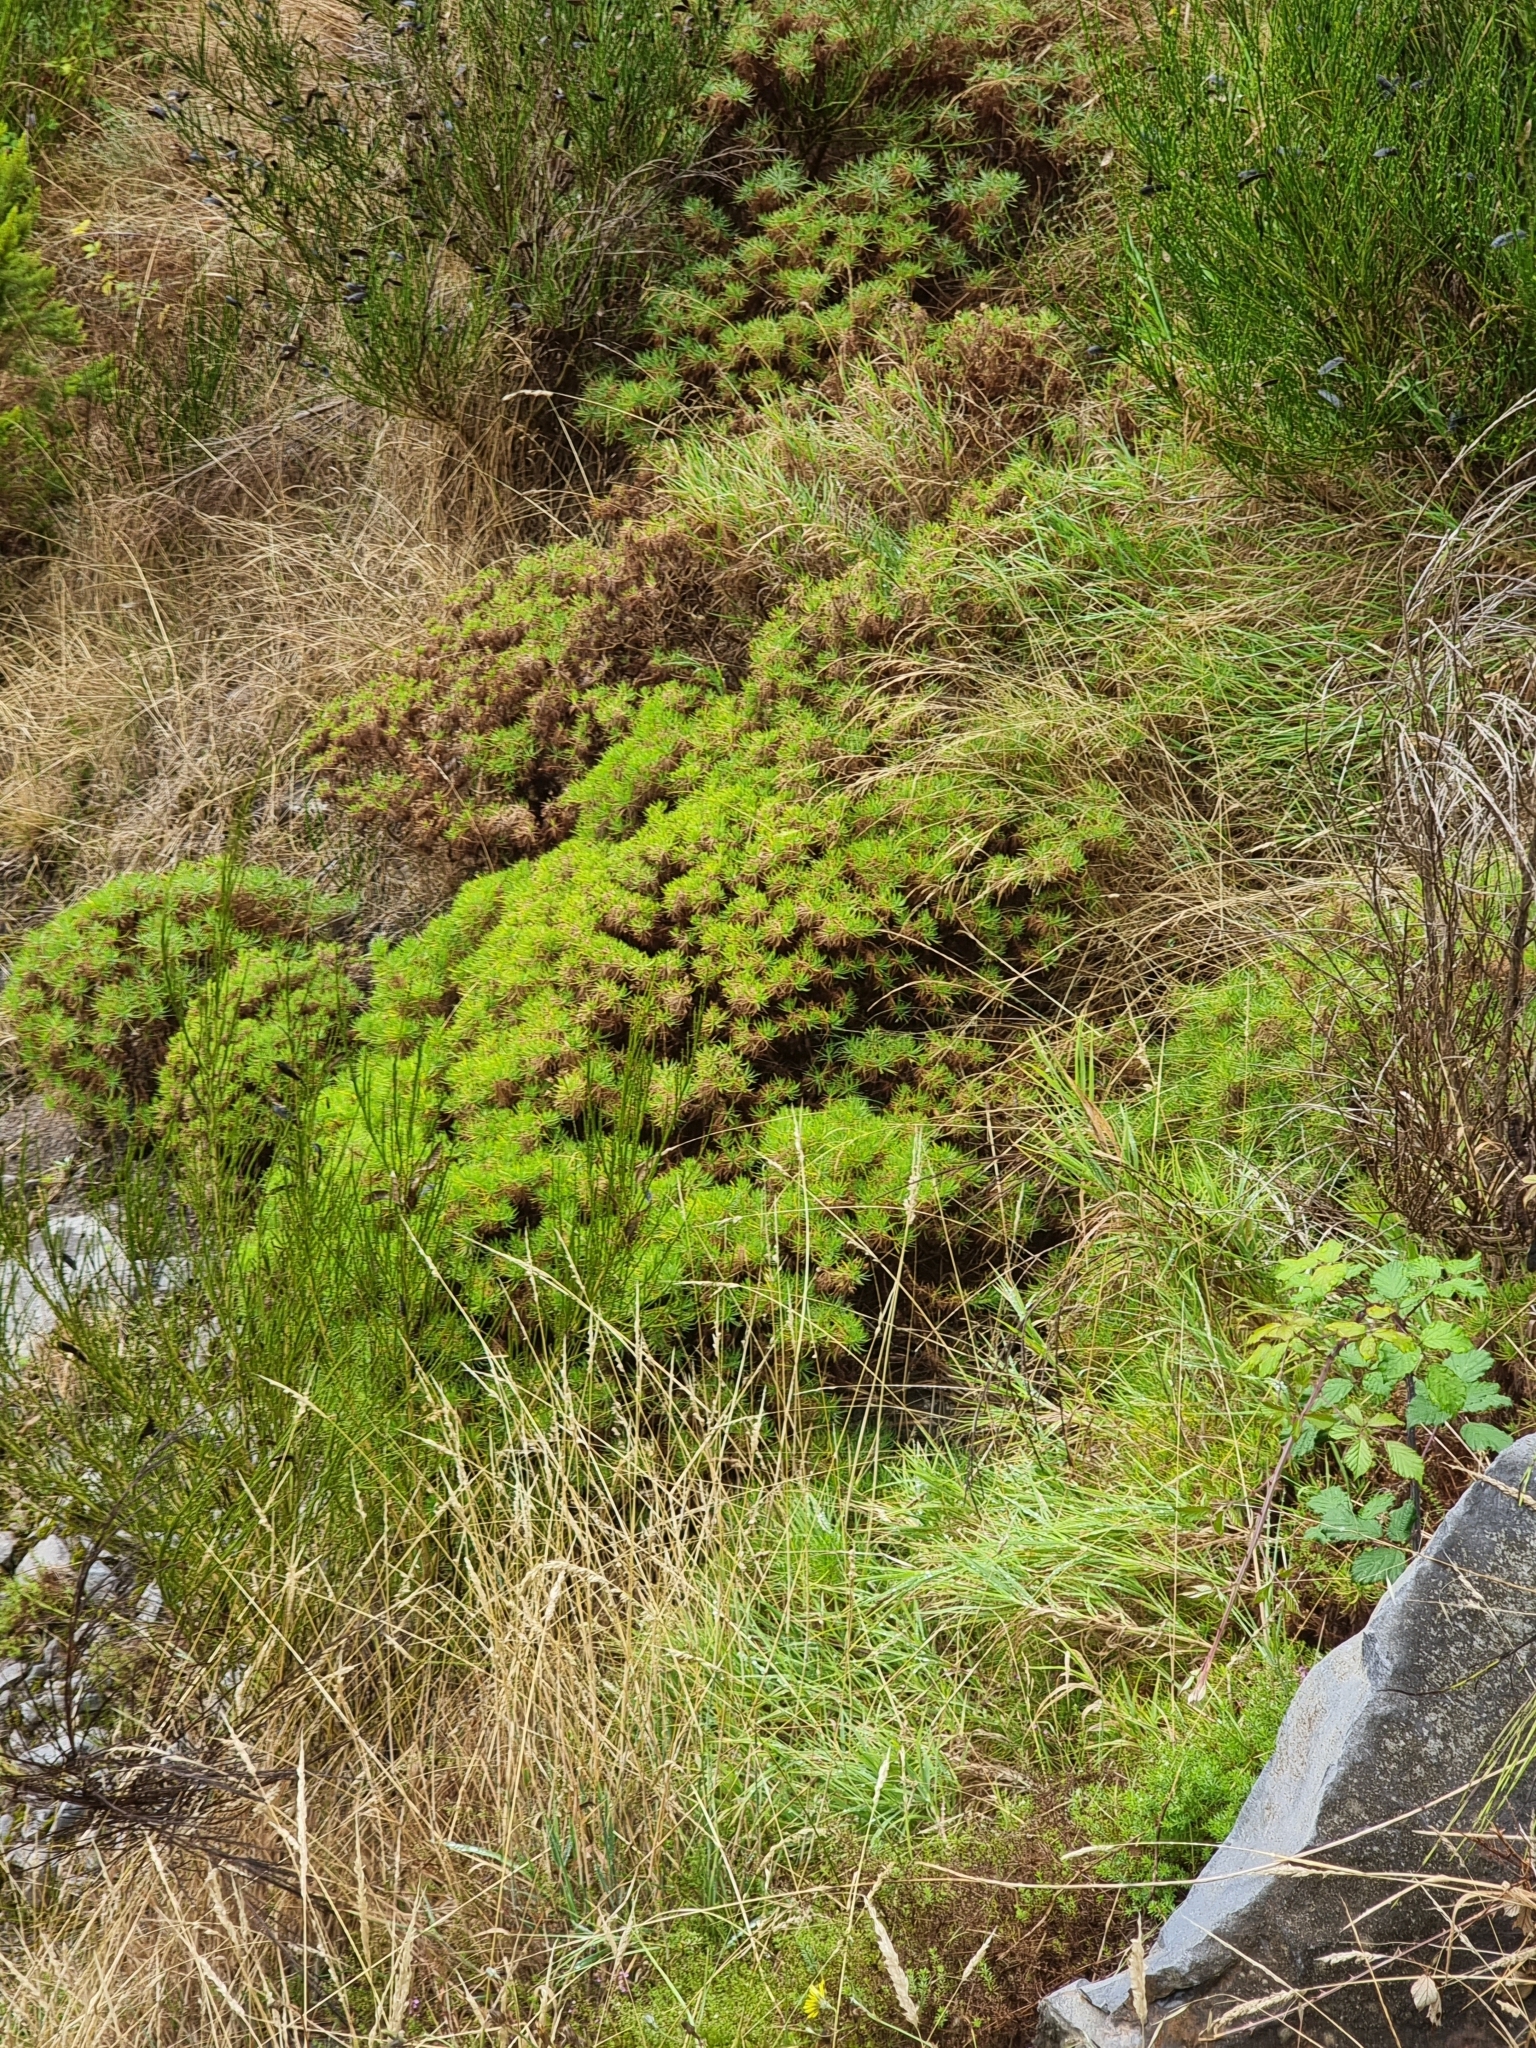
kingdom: Plantae
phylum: Tracheophyta
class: Magnoliopsida
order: Lamiales
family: Plantaginaceae
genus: Plantago
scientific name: Plantago arborescens
